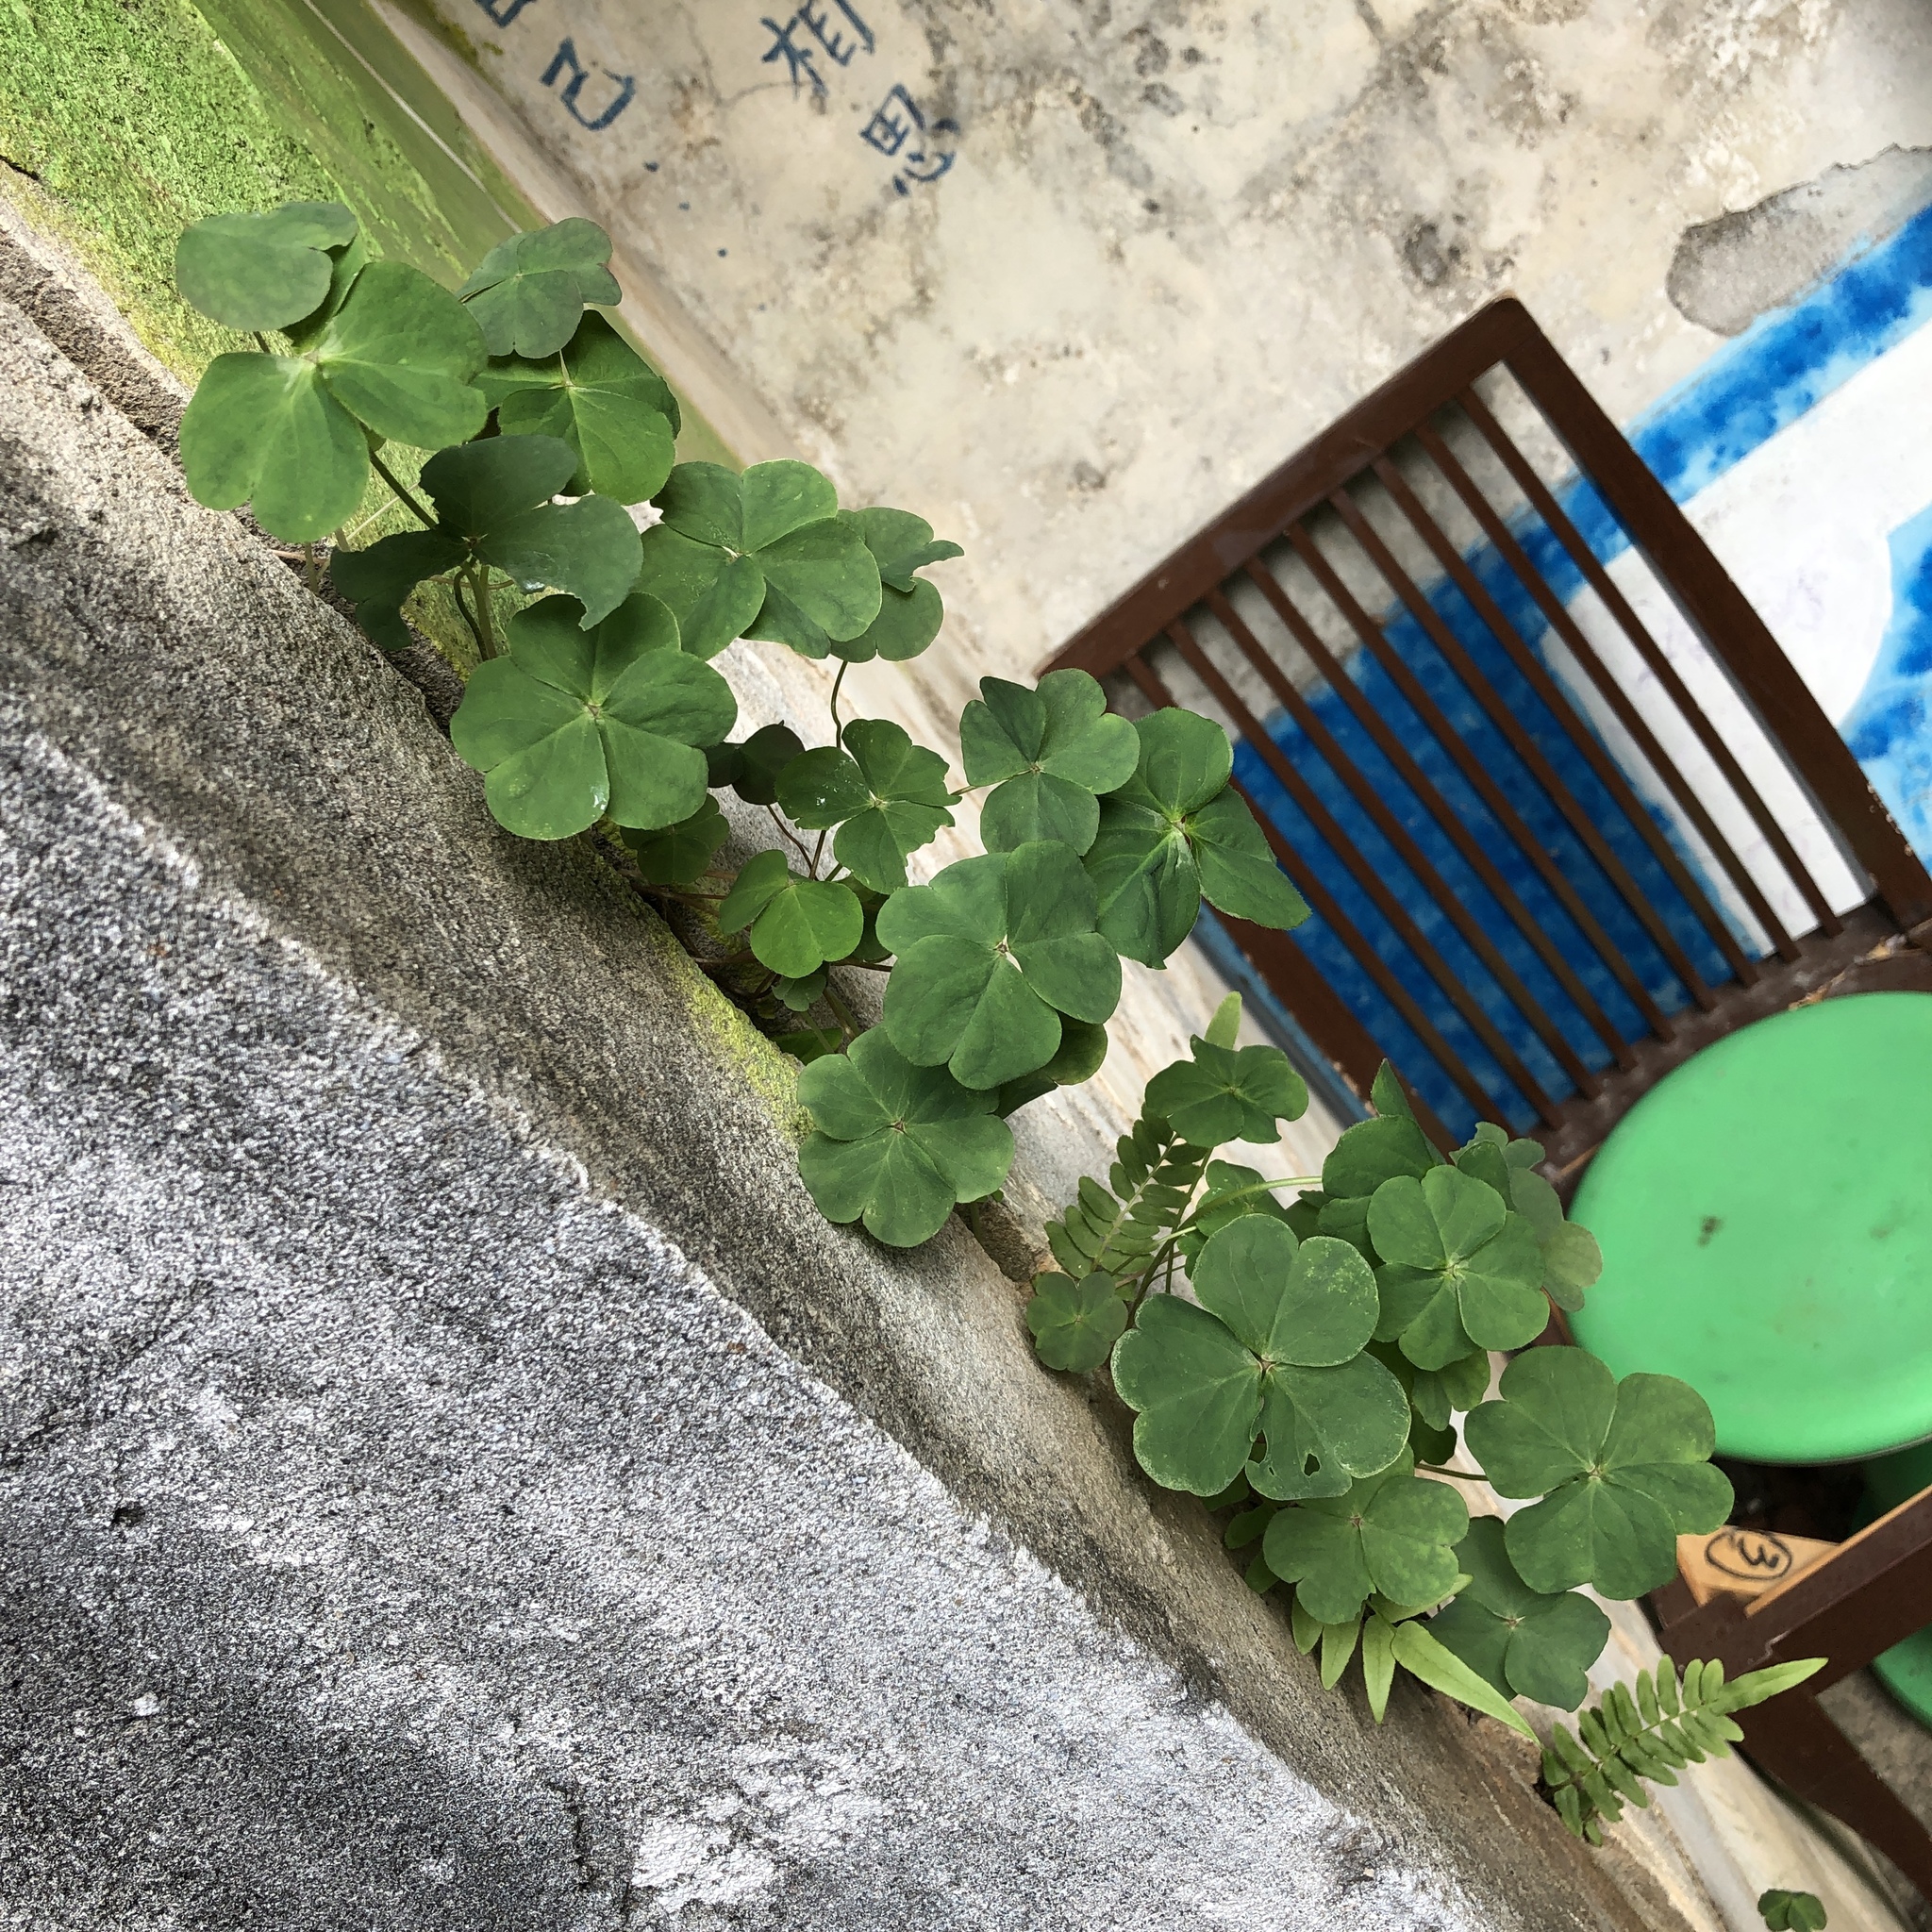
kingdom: Plantae
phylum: Tracheophyta
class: Magnoliopsida
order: Oxalidales
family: Oxalidaceae
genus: Oxalis
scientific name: Oxalis debilis
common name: Large-flowered pink-sorrel
